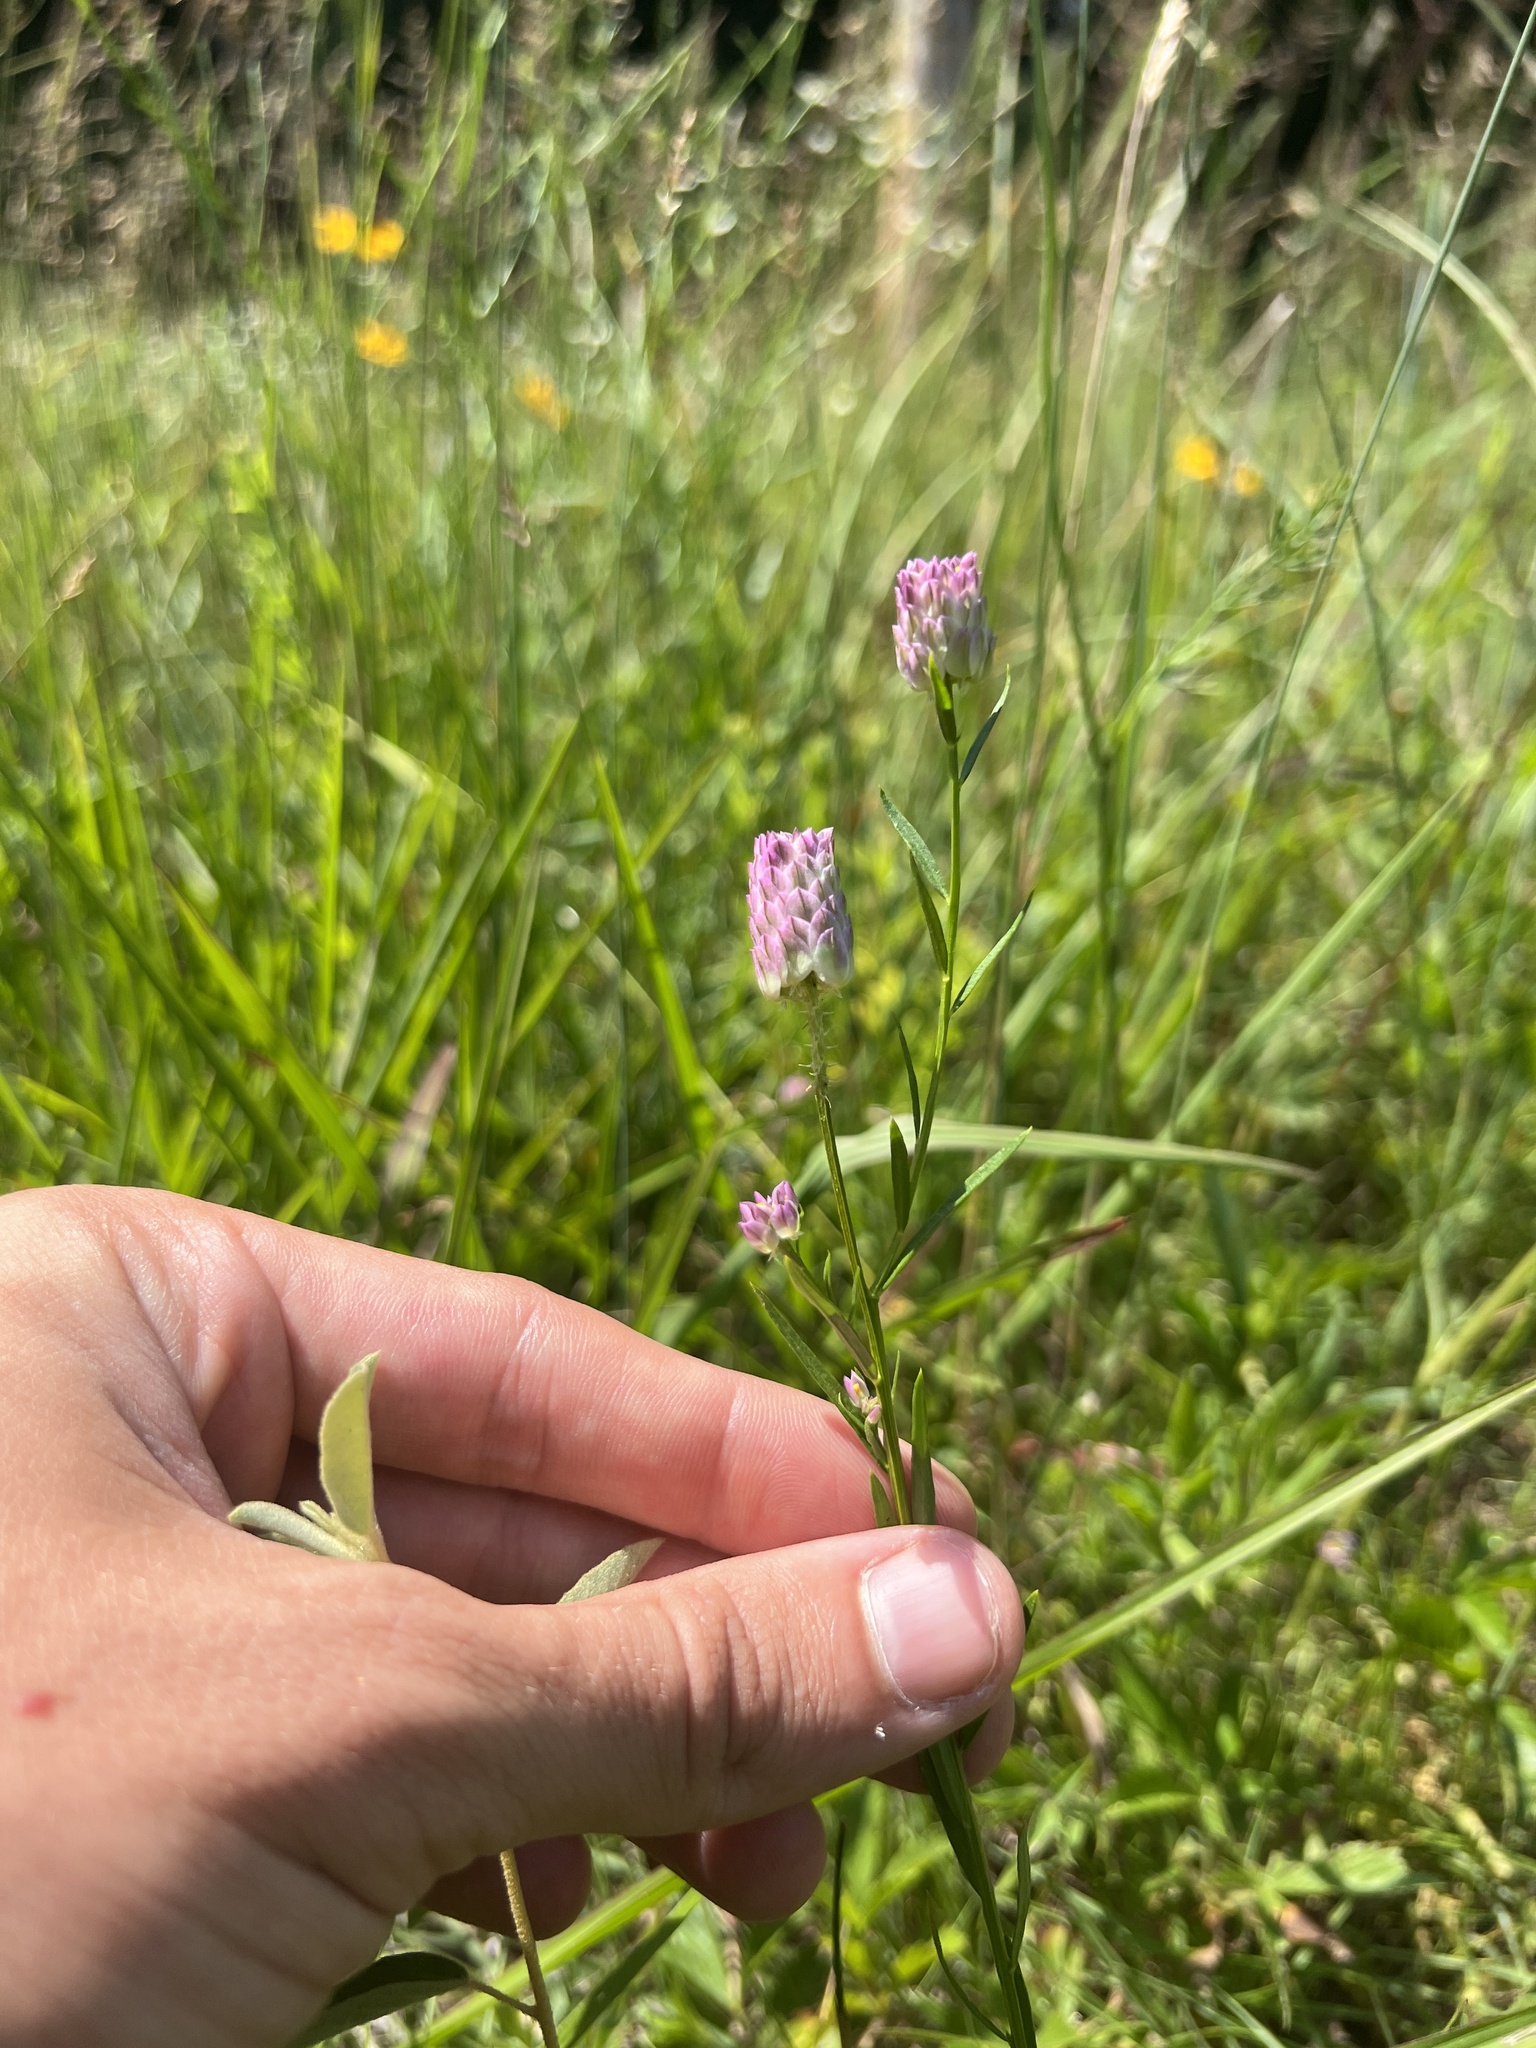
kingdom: Plantae
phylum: Tracheophyta
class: Magnoliopsida
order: Fabales
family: Polygalaceae
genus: Polygala
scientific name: Polygala sanguinea
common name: Blood milkwort
